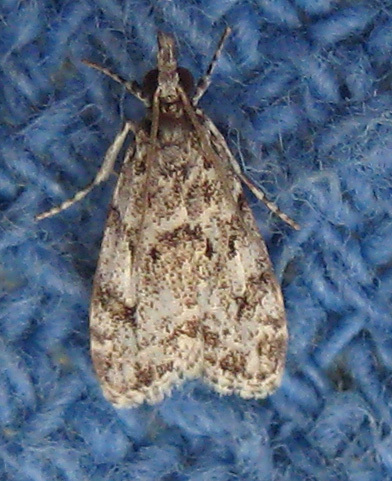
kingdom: Animalia
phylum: Arthropoda
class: Insecta
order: Lepidoptera
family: Crambidae
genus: Eudonia
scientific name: Eudonia heterosalis
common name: Mcdunnough's eudonia
